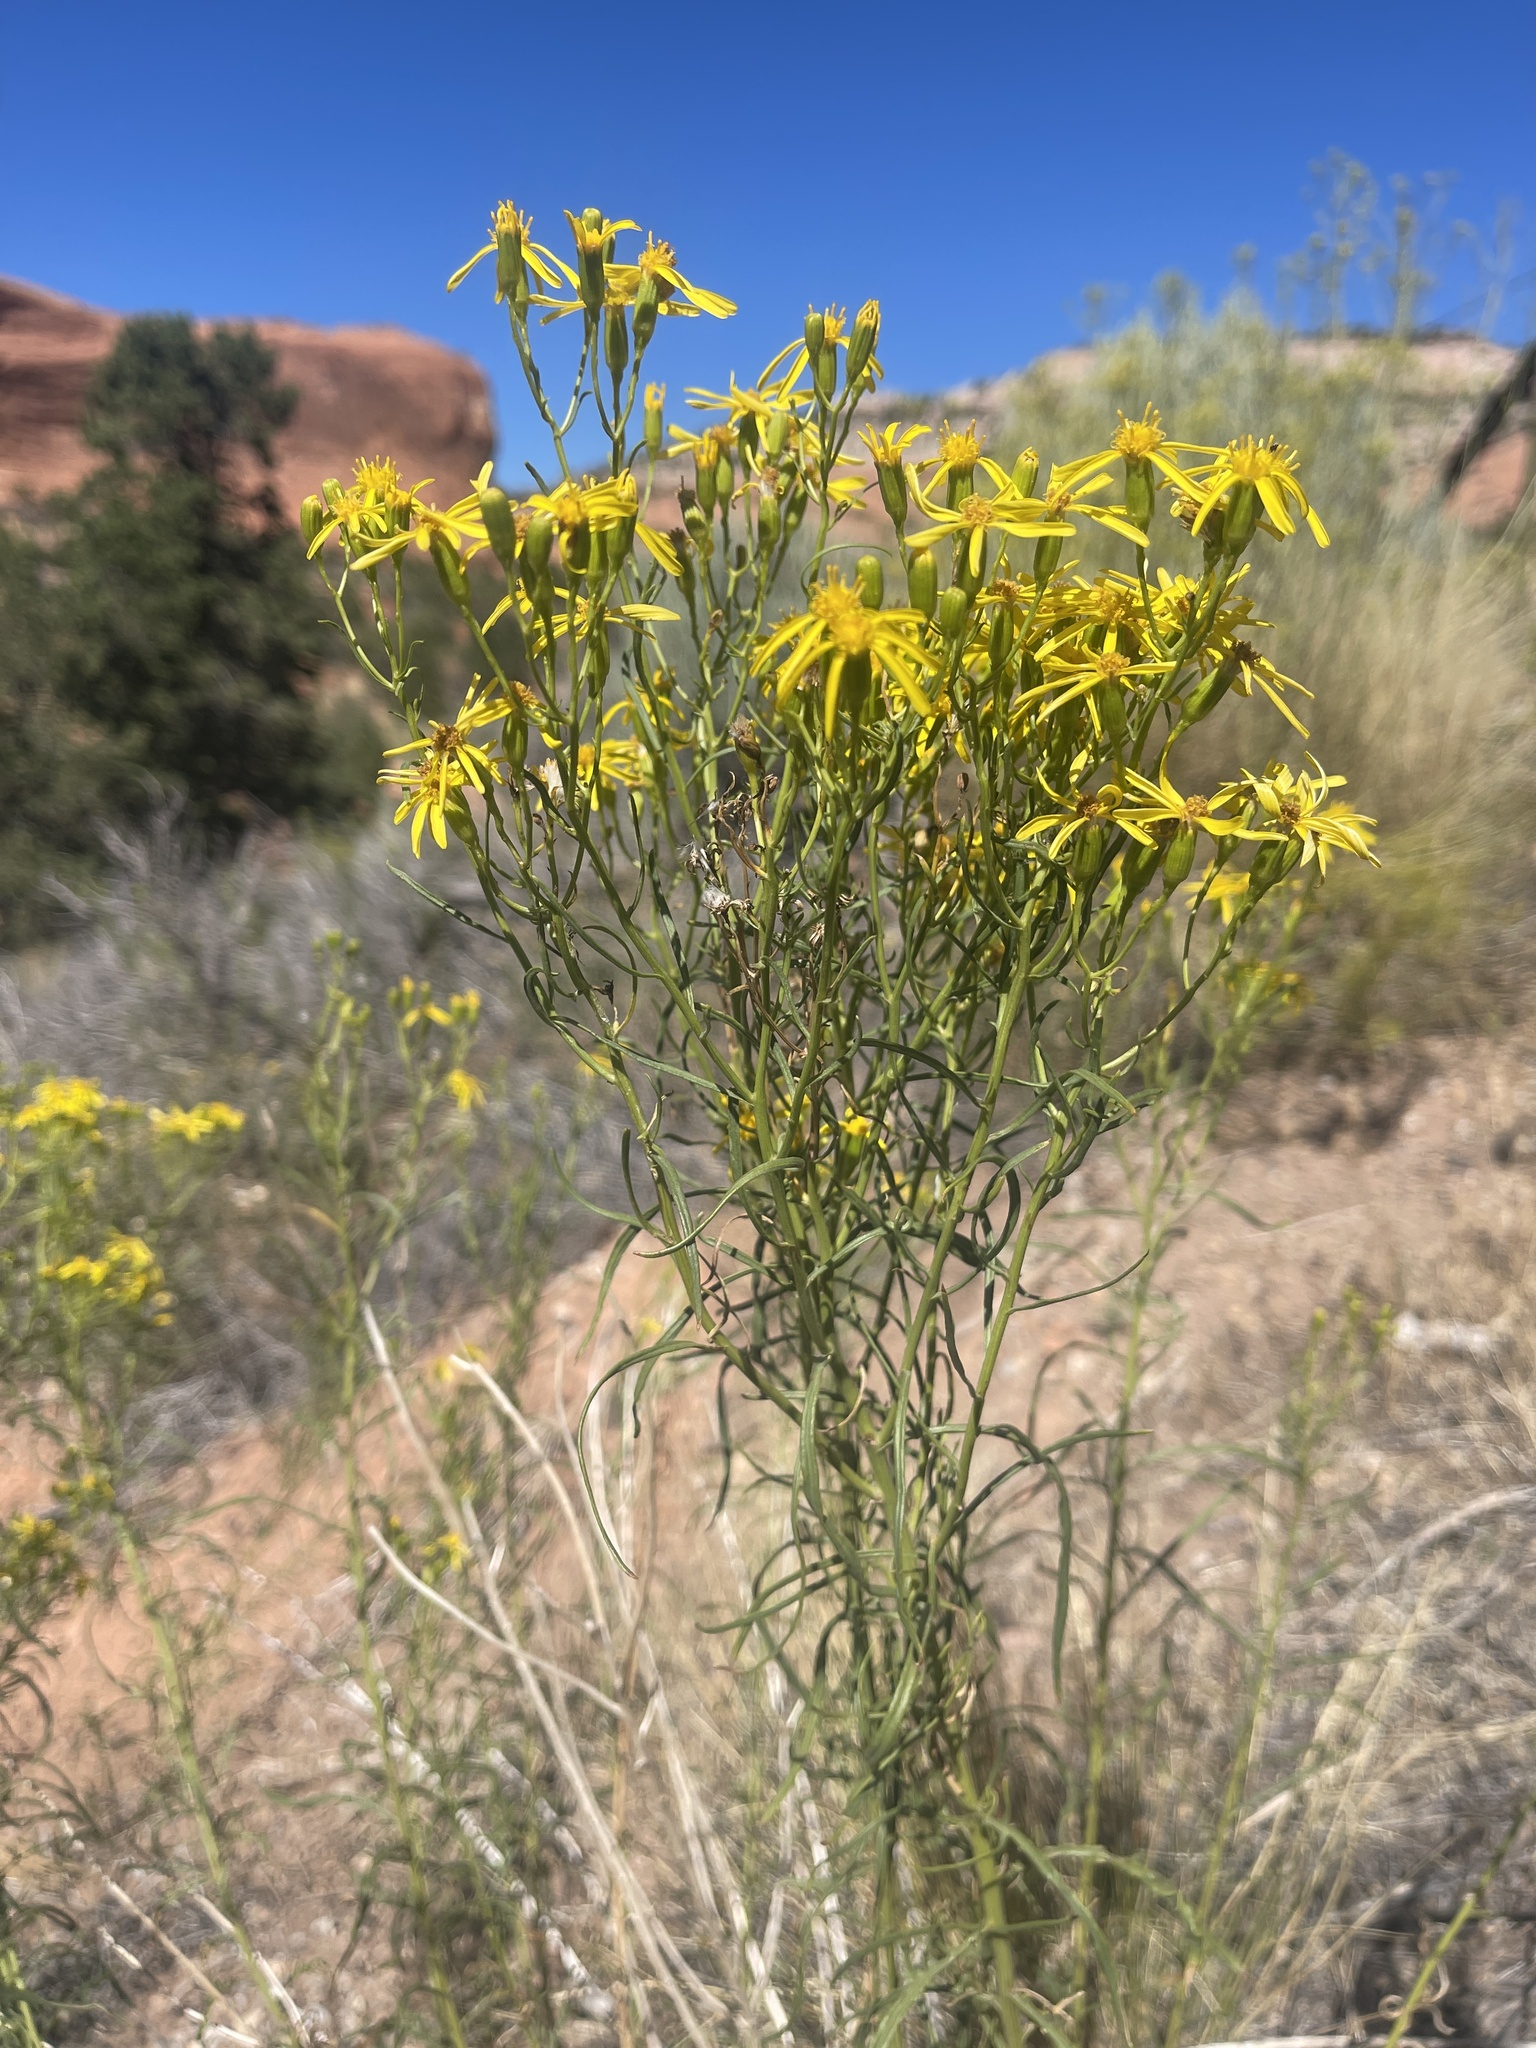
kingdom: Plantae
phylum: Tracheophyta
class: Magnoliopsida
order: Asterales
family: Asteraceae
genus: Senecio
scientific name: Senecio flaccidus
